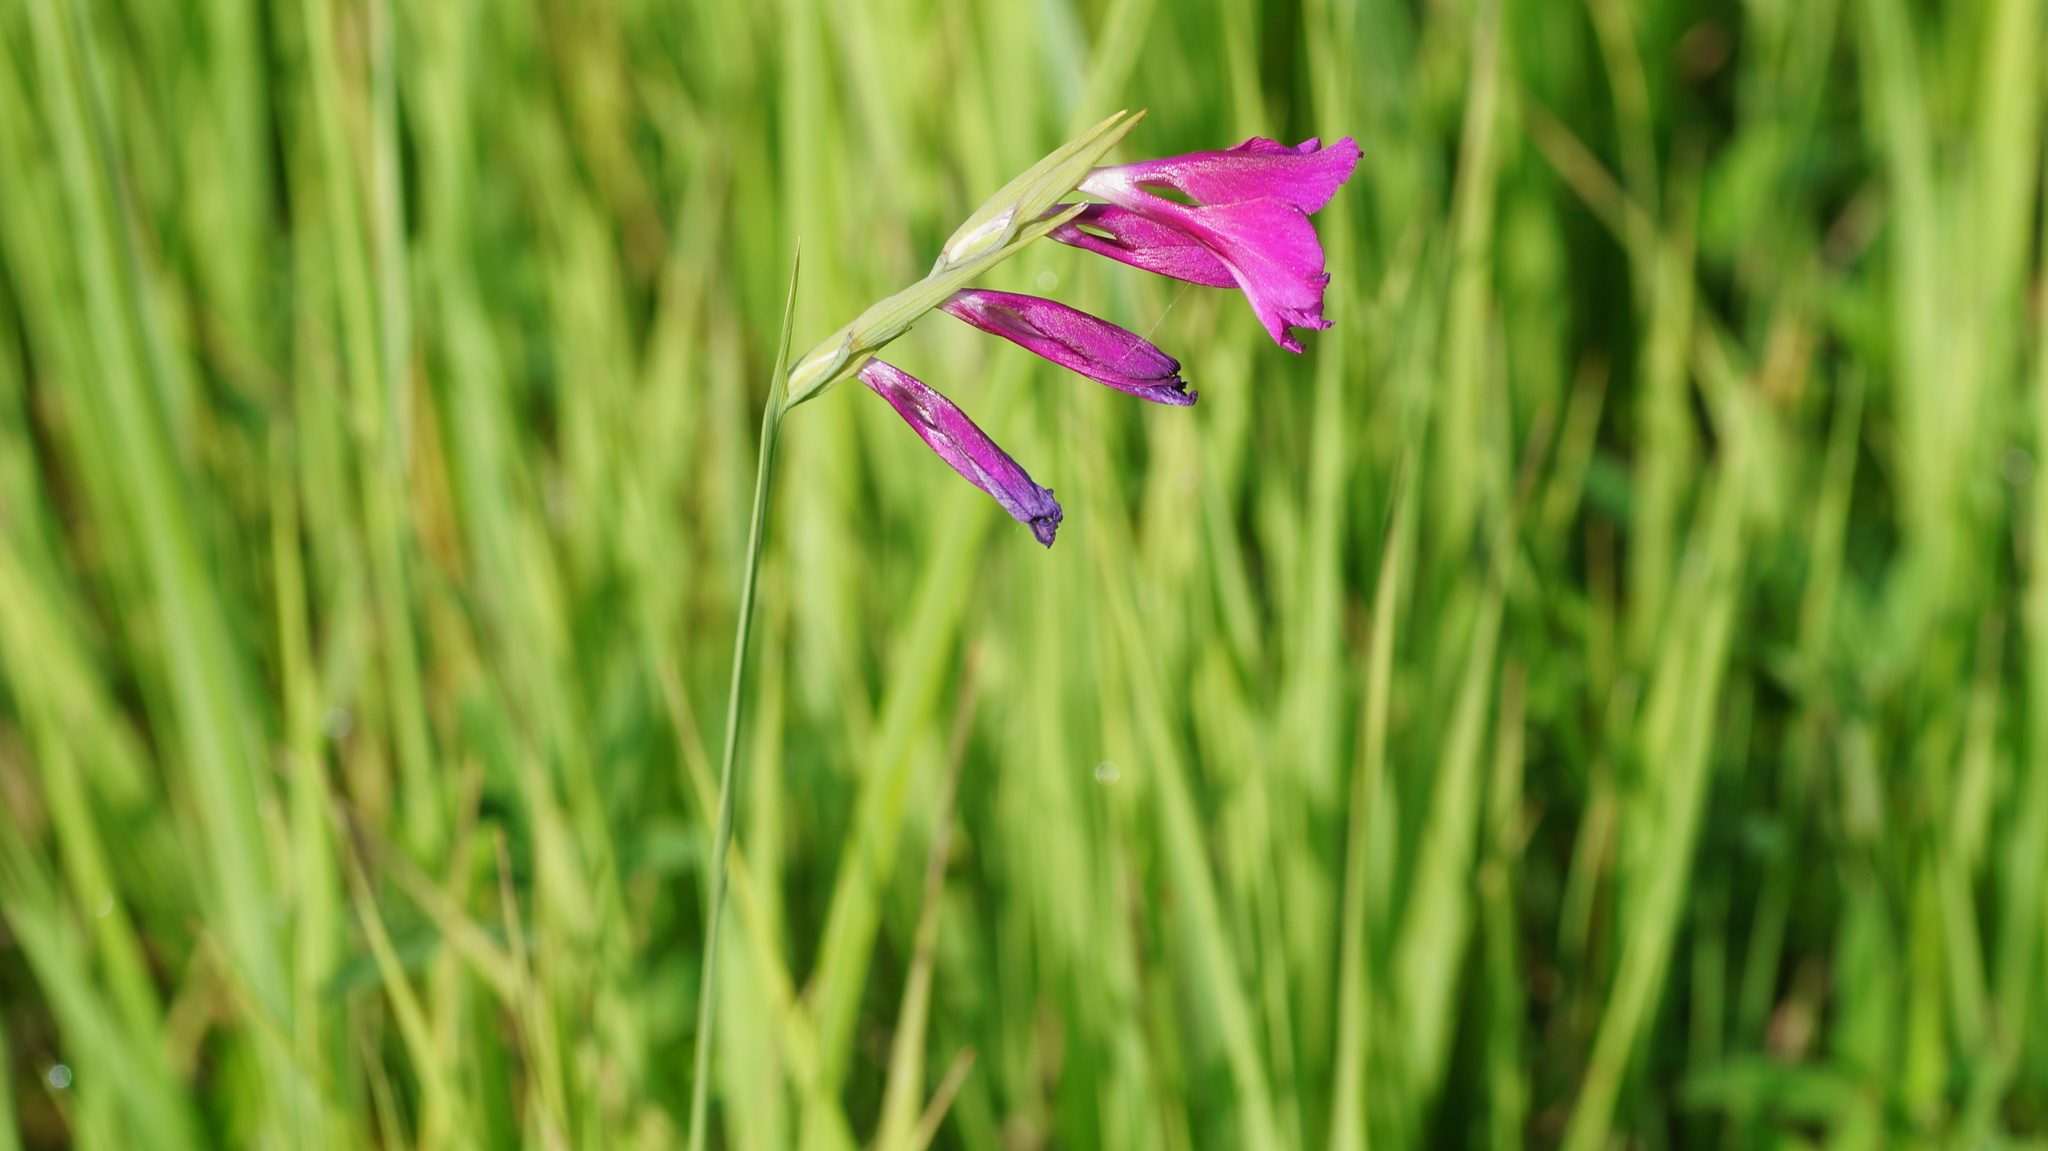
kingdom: Plantae
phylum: Tracheophyta
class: Liliopsida
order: Asparagales
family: Iridaceae
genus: Gladiolus
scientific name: Gladiolus tenuis
